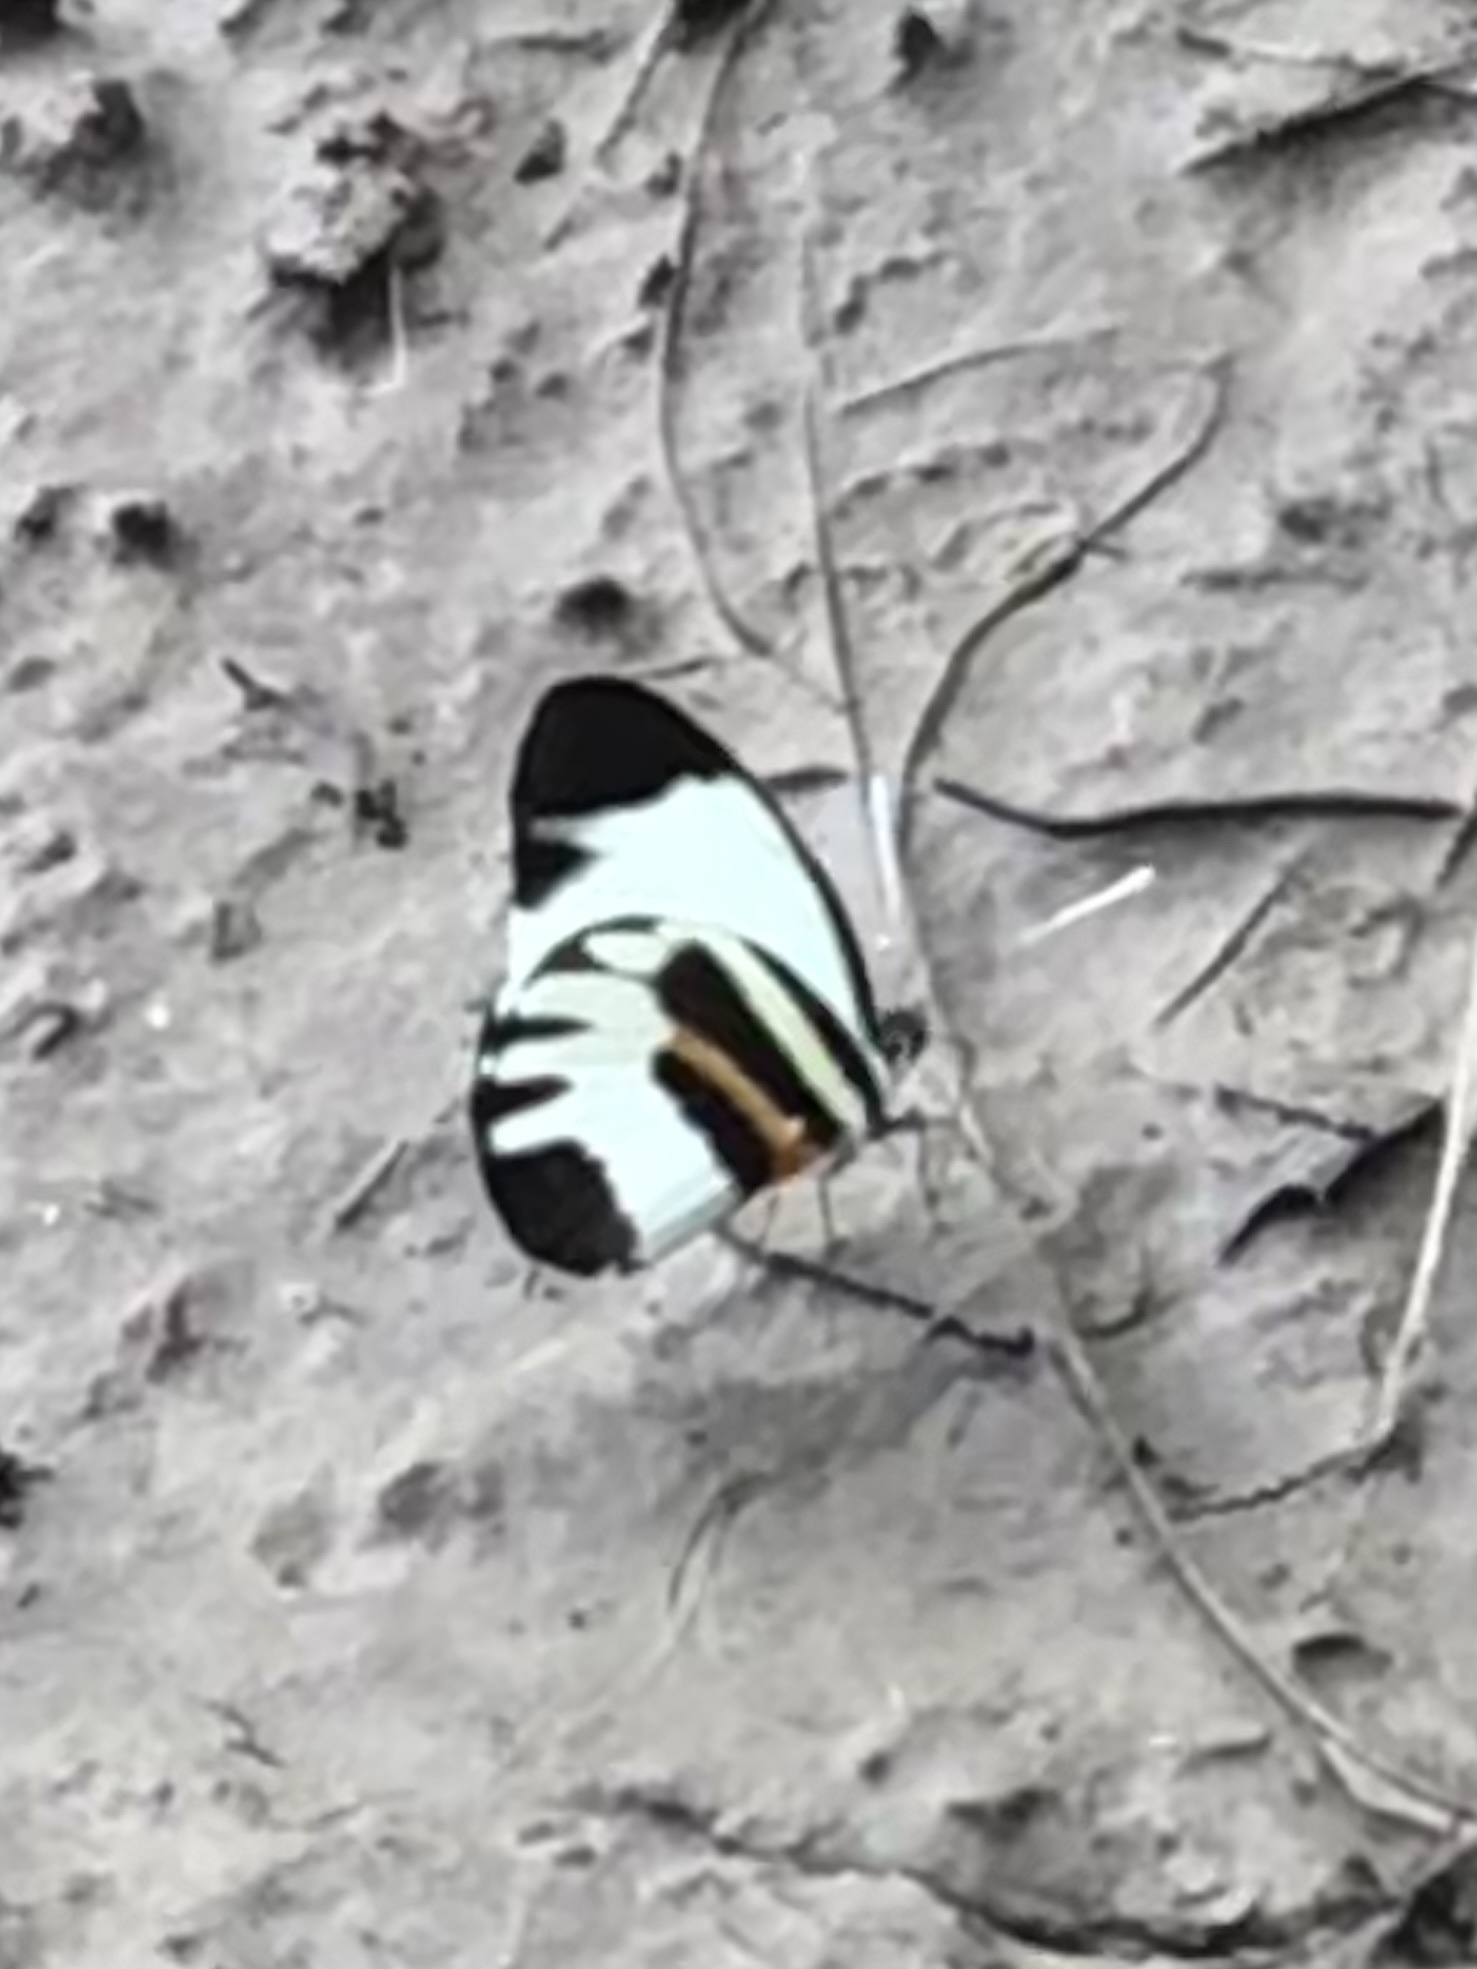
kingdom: Animalia
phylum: Arthropoda
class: Insecta
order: Lepidoptera
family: Pieridae
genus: Perrhybris
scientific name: Perrhybris pamela
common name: Chiapas white
